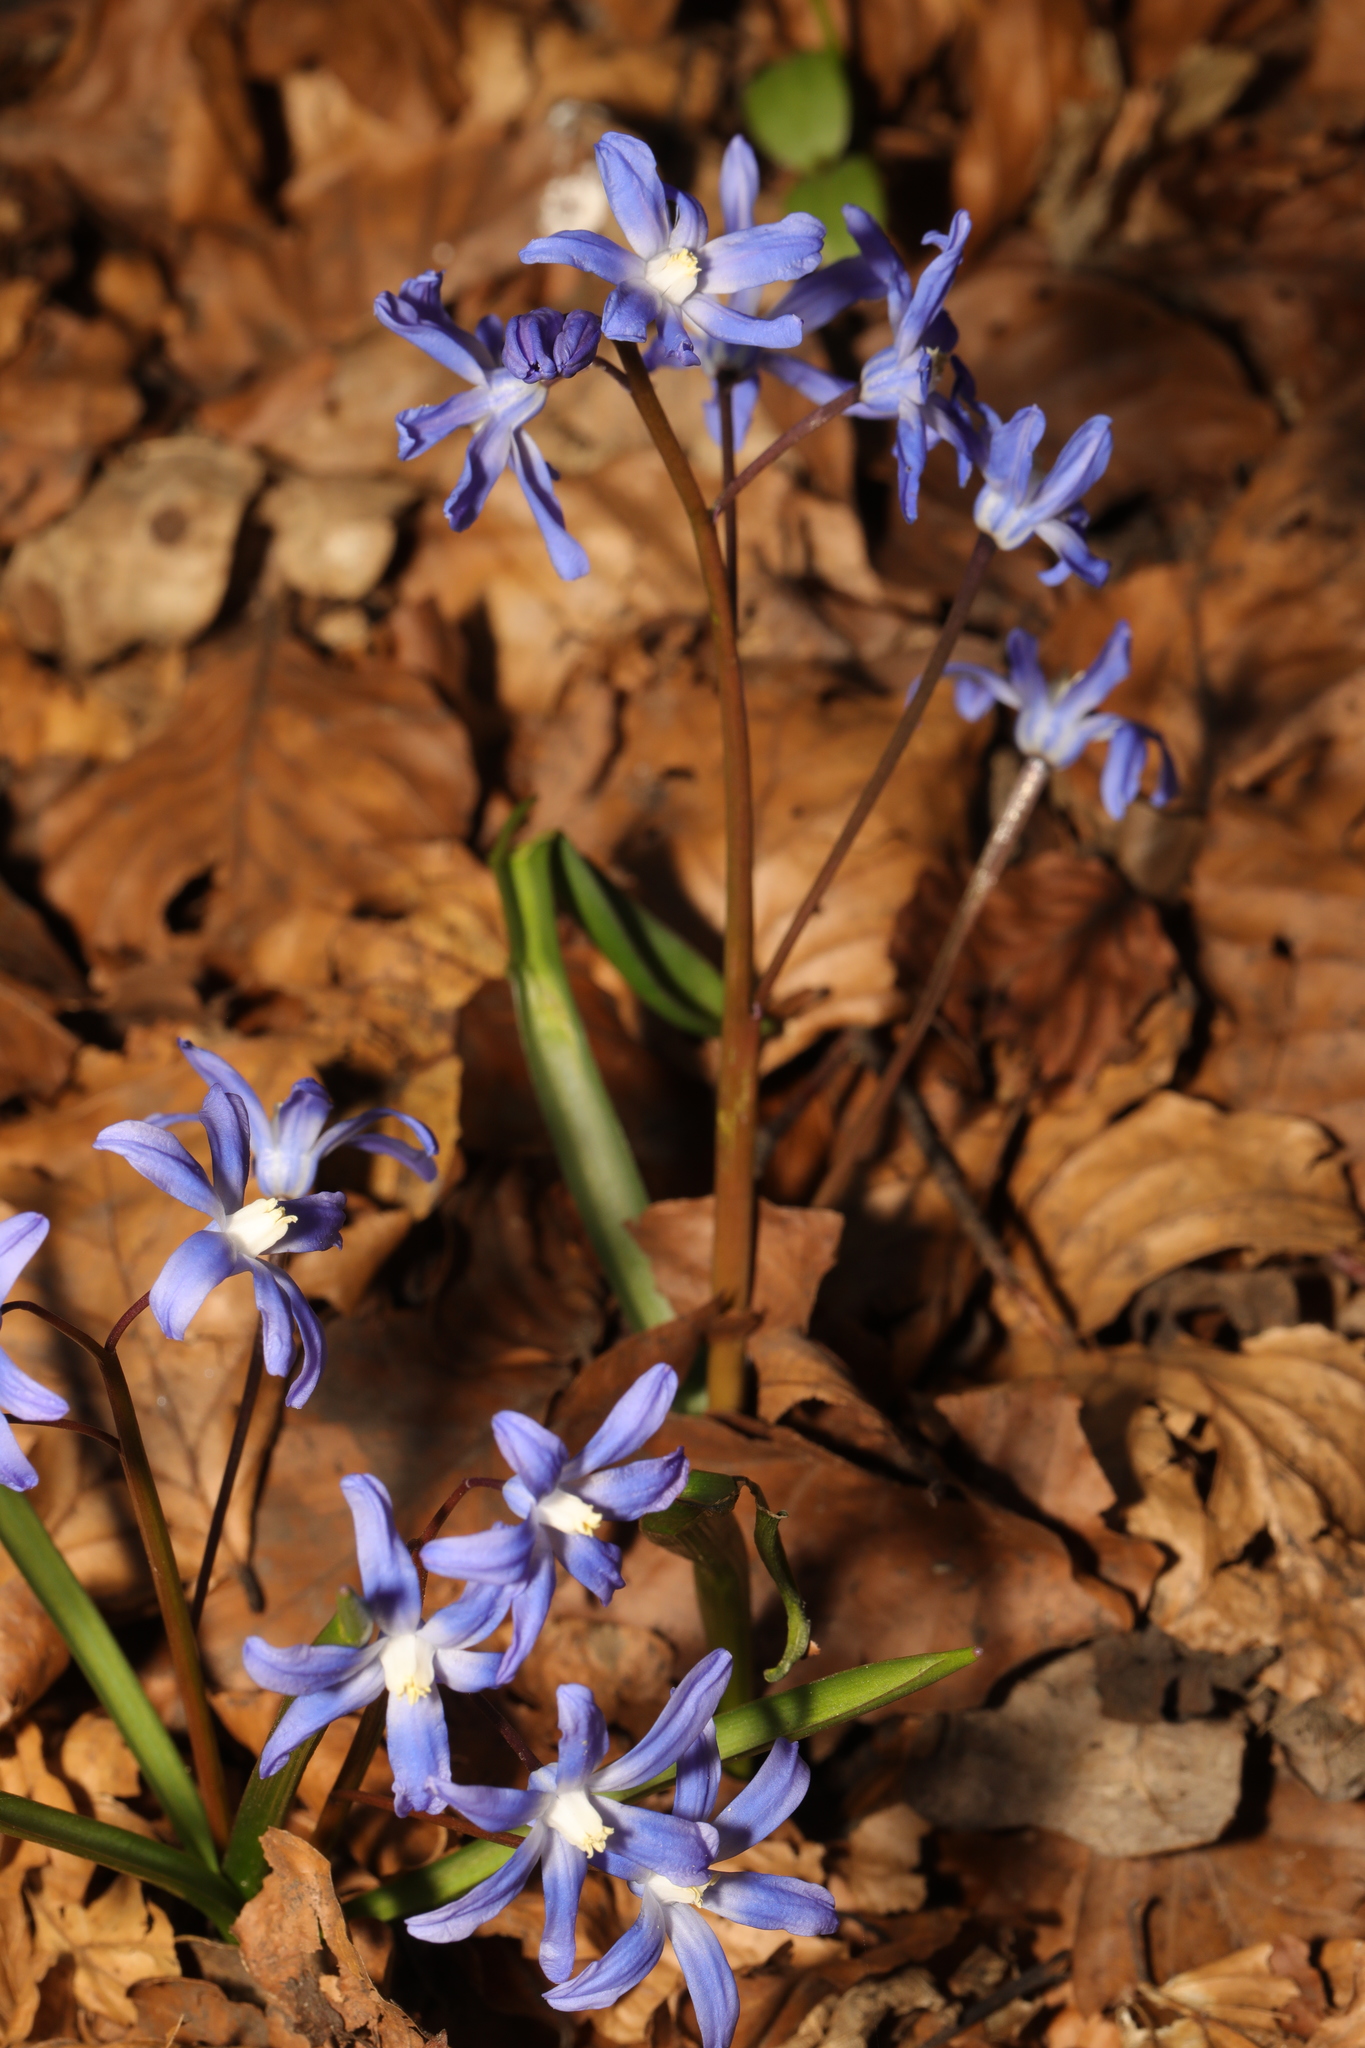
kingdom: Plantae
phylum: Tracheophyta
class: Liliopsida
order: Asparagales
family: Asparagaceae
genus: Scilla
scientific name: Scilla forbesii
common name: Glory-of-the-snow
